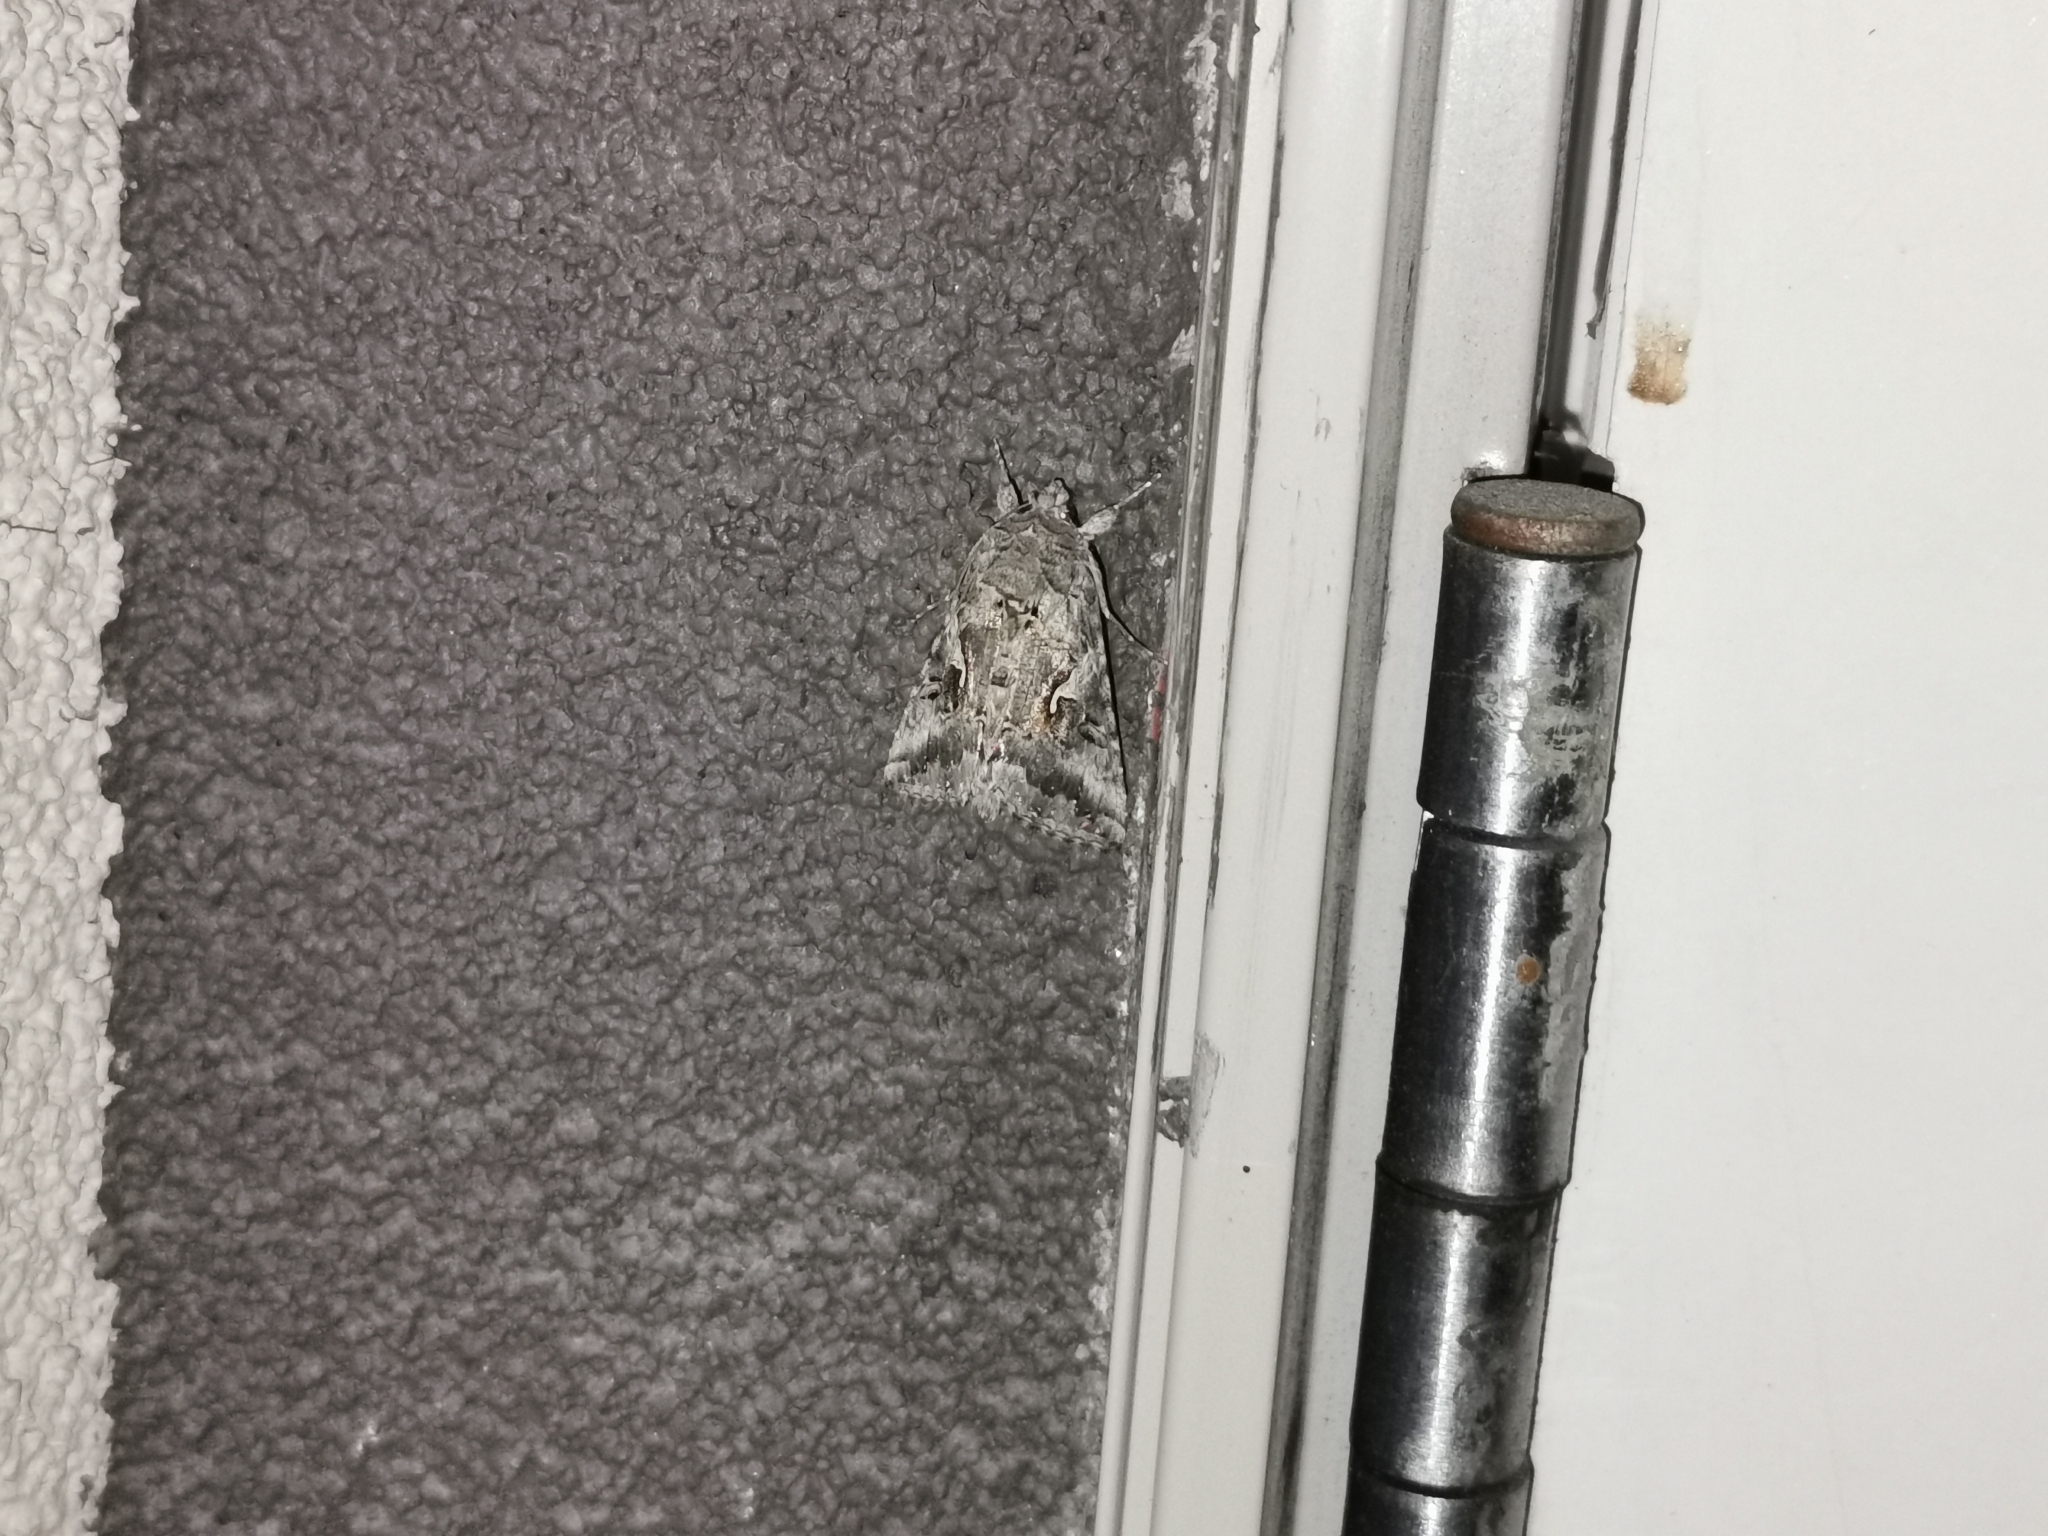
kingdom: Animalia
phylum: Arthropoda
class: Insecta
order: Lepidoptera
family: Noctuidae
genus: Autographa
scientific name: Autographa californica
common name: Alfalfa looper
